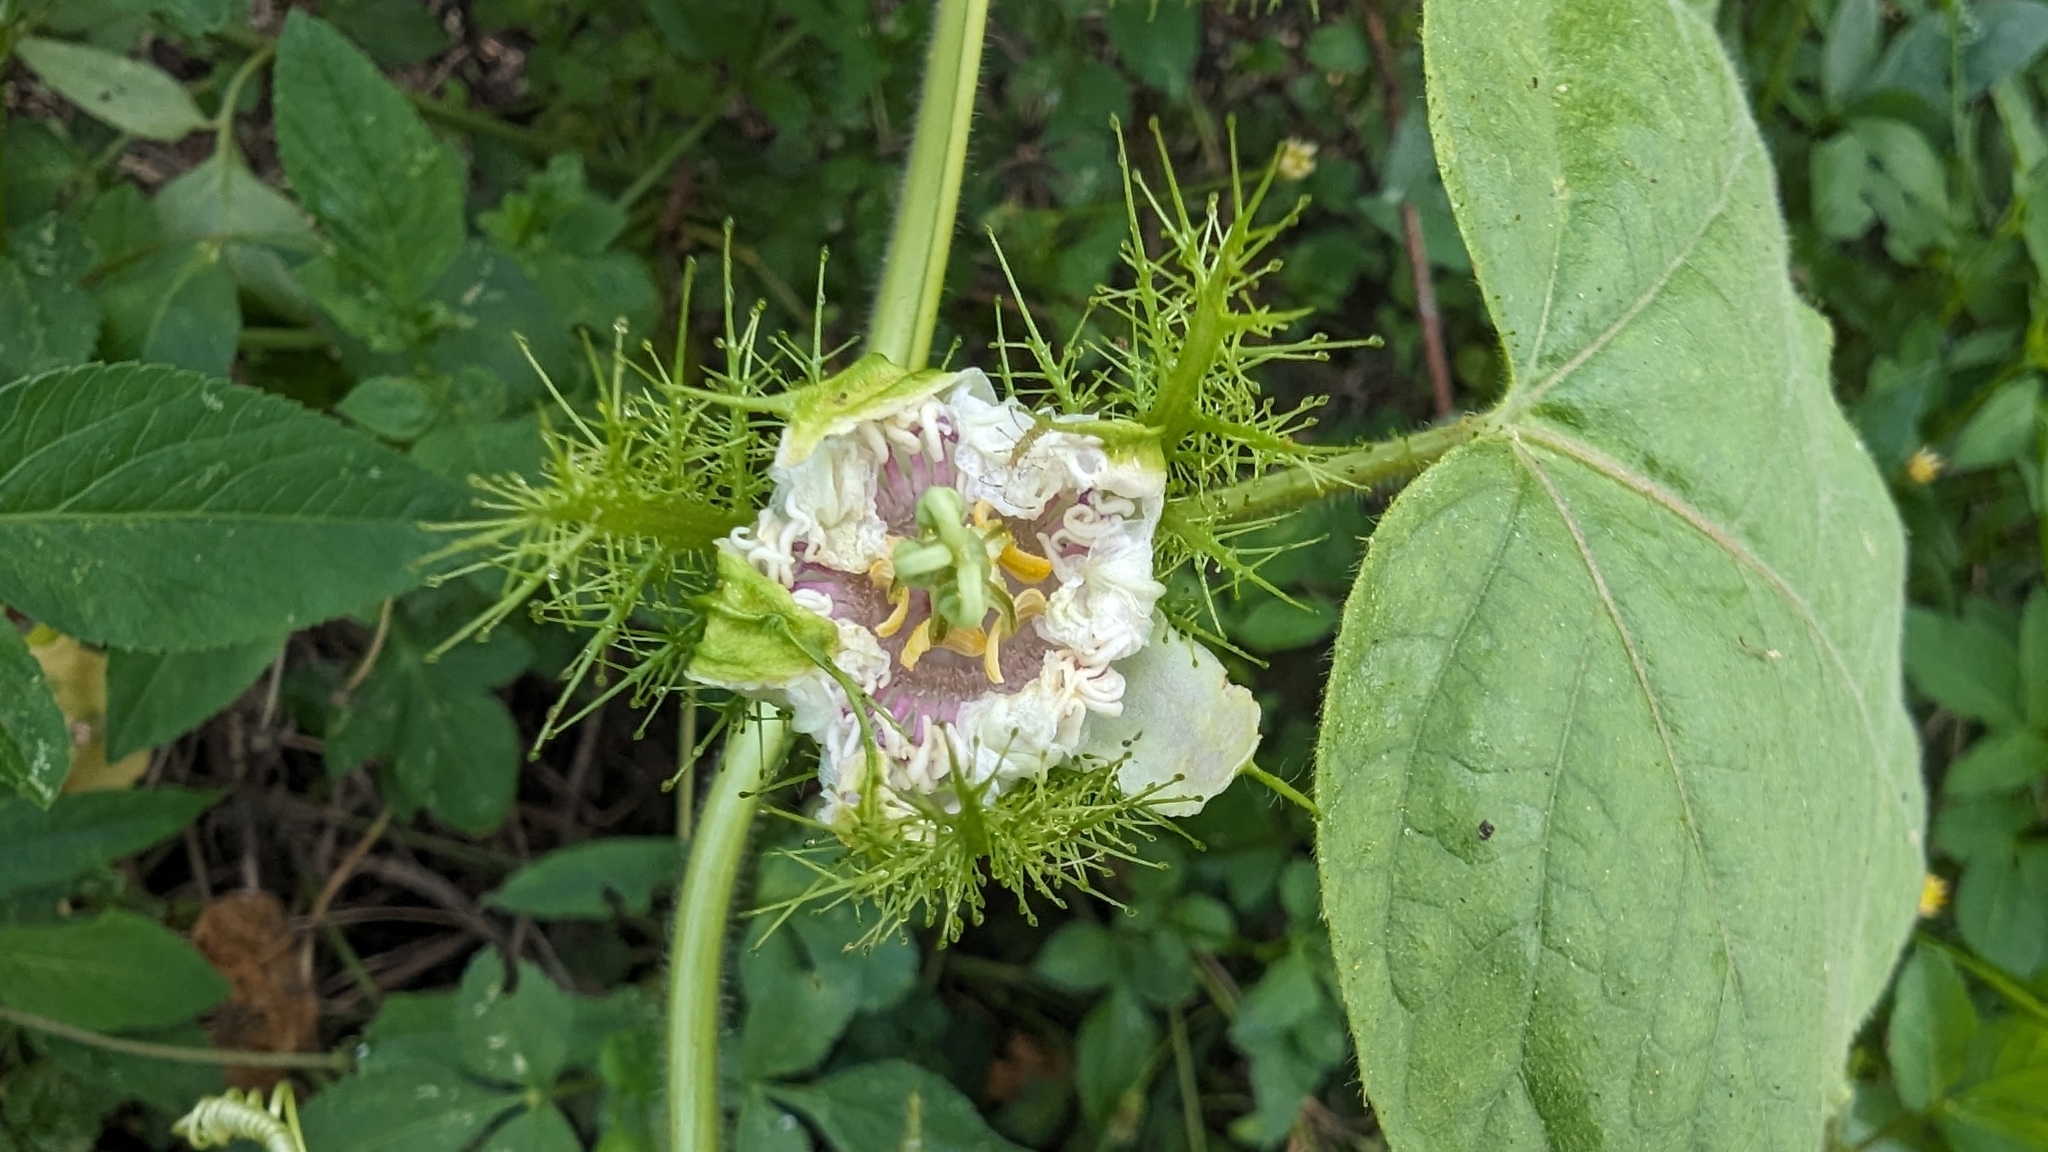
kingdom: Plantae
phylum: Tracheophyta
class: Magnoliopsida
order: Malpighiales
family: Passifloraceae
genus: Passiflora
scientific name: Passiflora vesicaria
